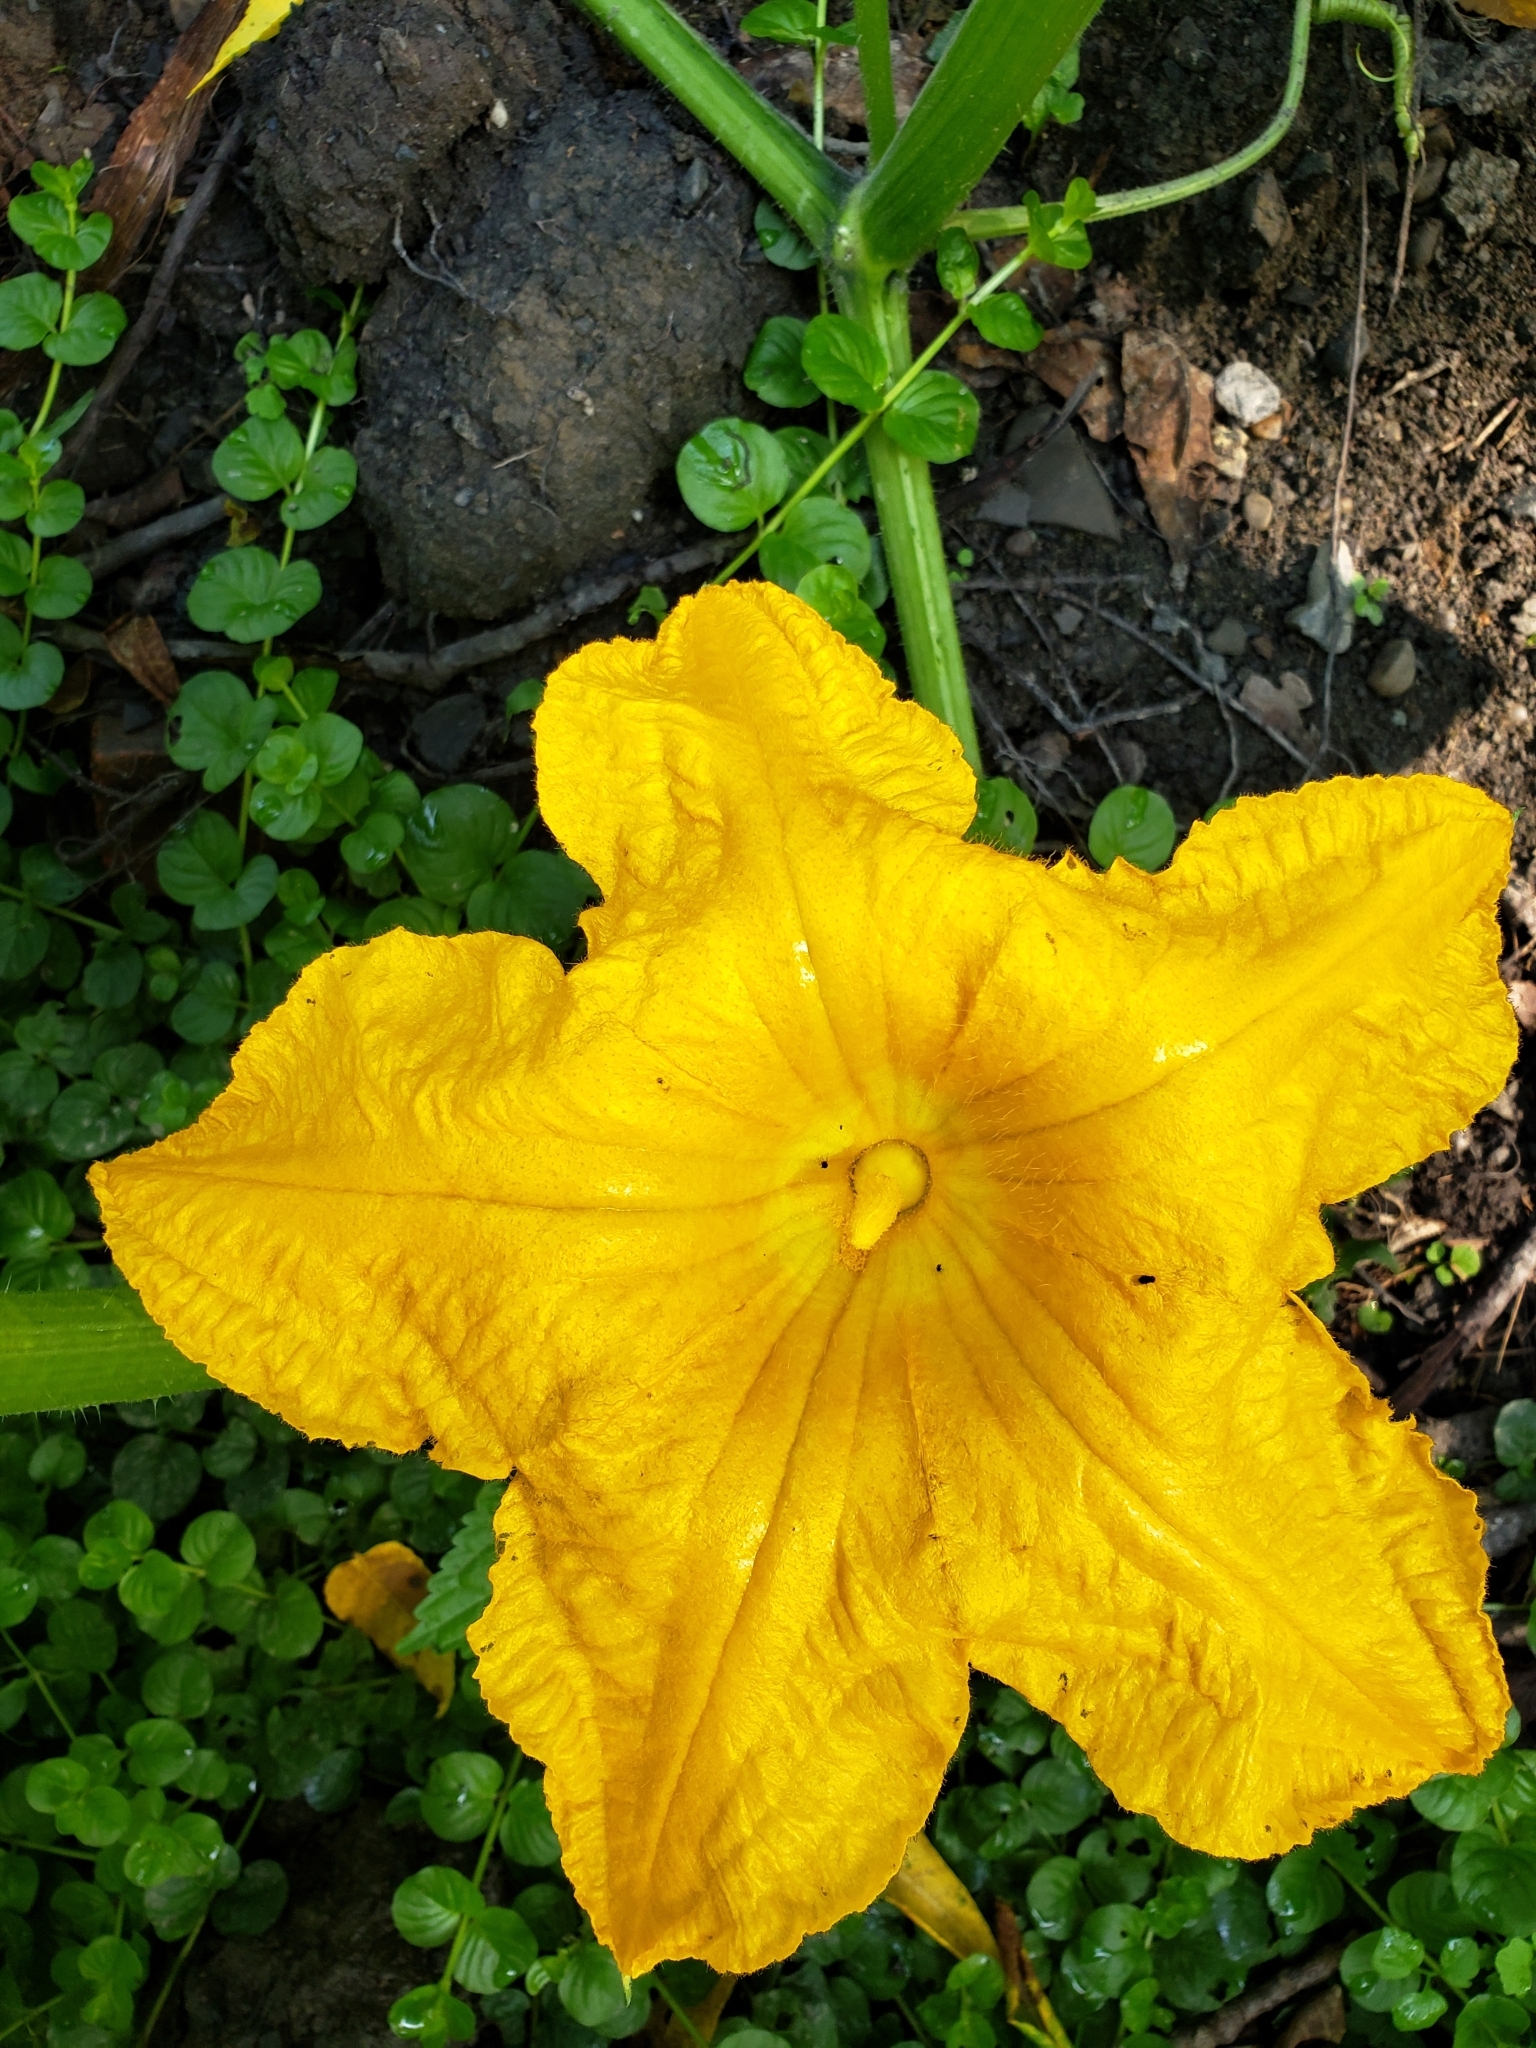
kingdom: Plantae
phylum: Tracheophyta
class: Magnoliopsida
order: Cucurbitales
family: Cucurbitaceae
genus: Cucurbita
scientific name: Cucurbita pepo
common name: Marrow
